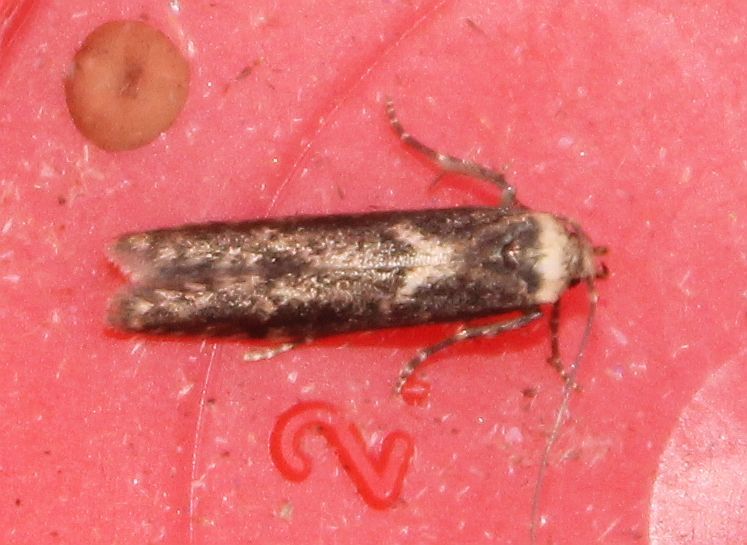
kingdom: Animalia
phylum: Arthropoda
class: Insecta
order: Lepidoptera
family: Blastobasidae
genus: Blastobasis
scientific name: Blastobasis adustella
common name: Dingy dowd
